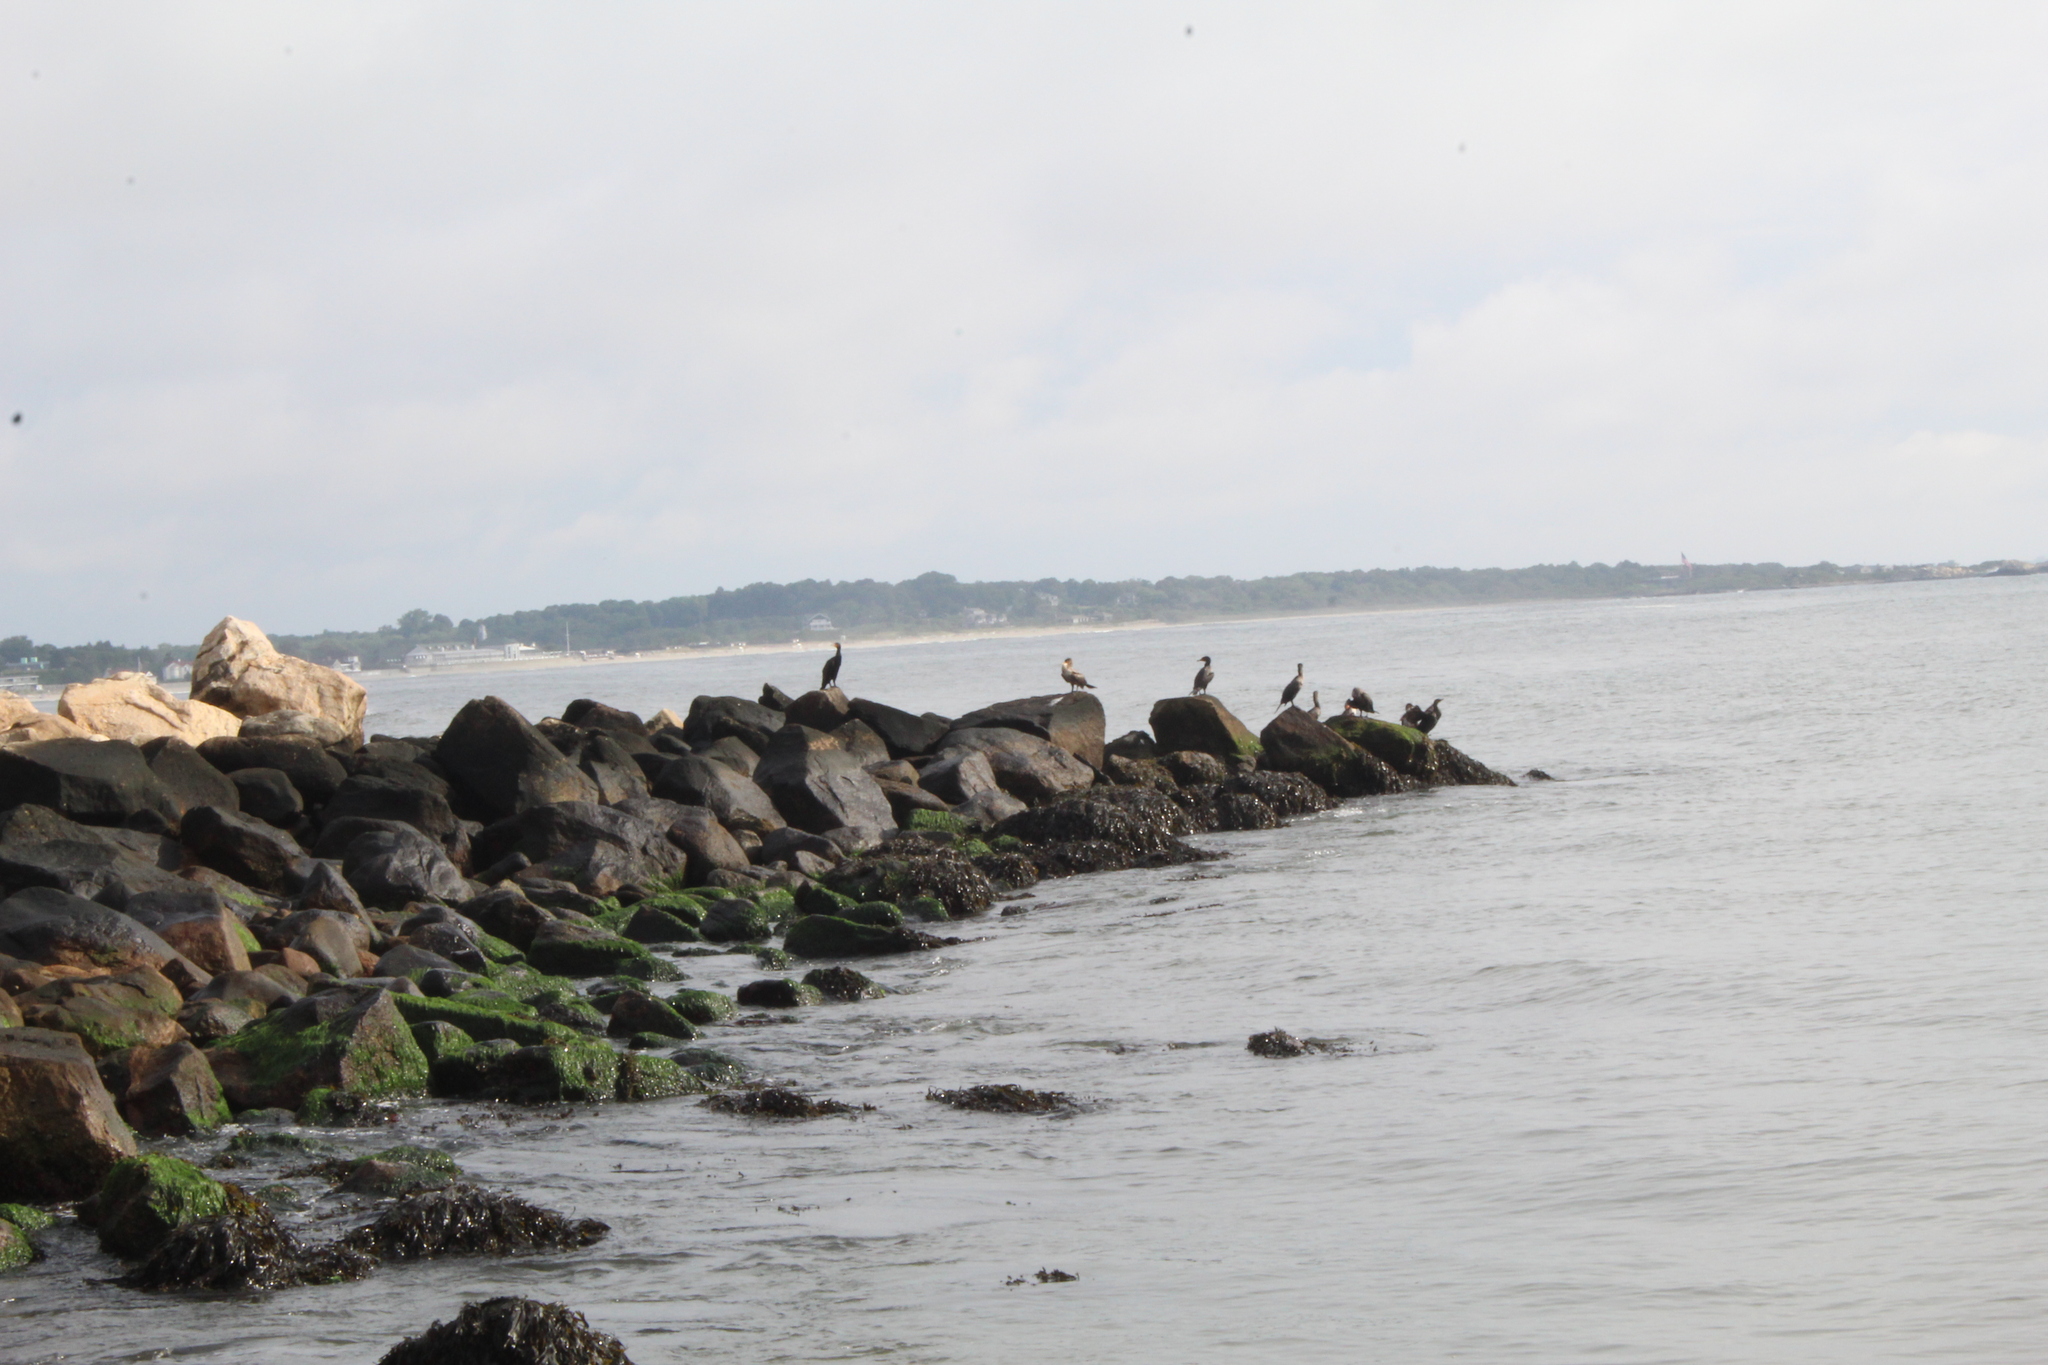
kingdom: Animalia
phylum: Chordata
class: Aves
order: Suliformes
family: Phalacrocoracidae
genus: Phalacrocorax
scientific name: Phalacrocorax auritus
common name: Double-crested cormorant
